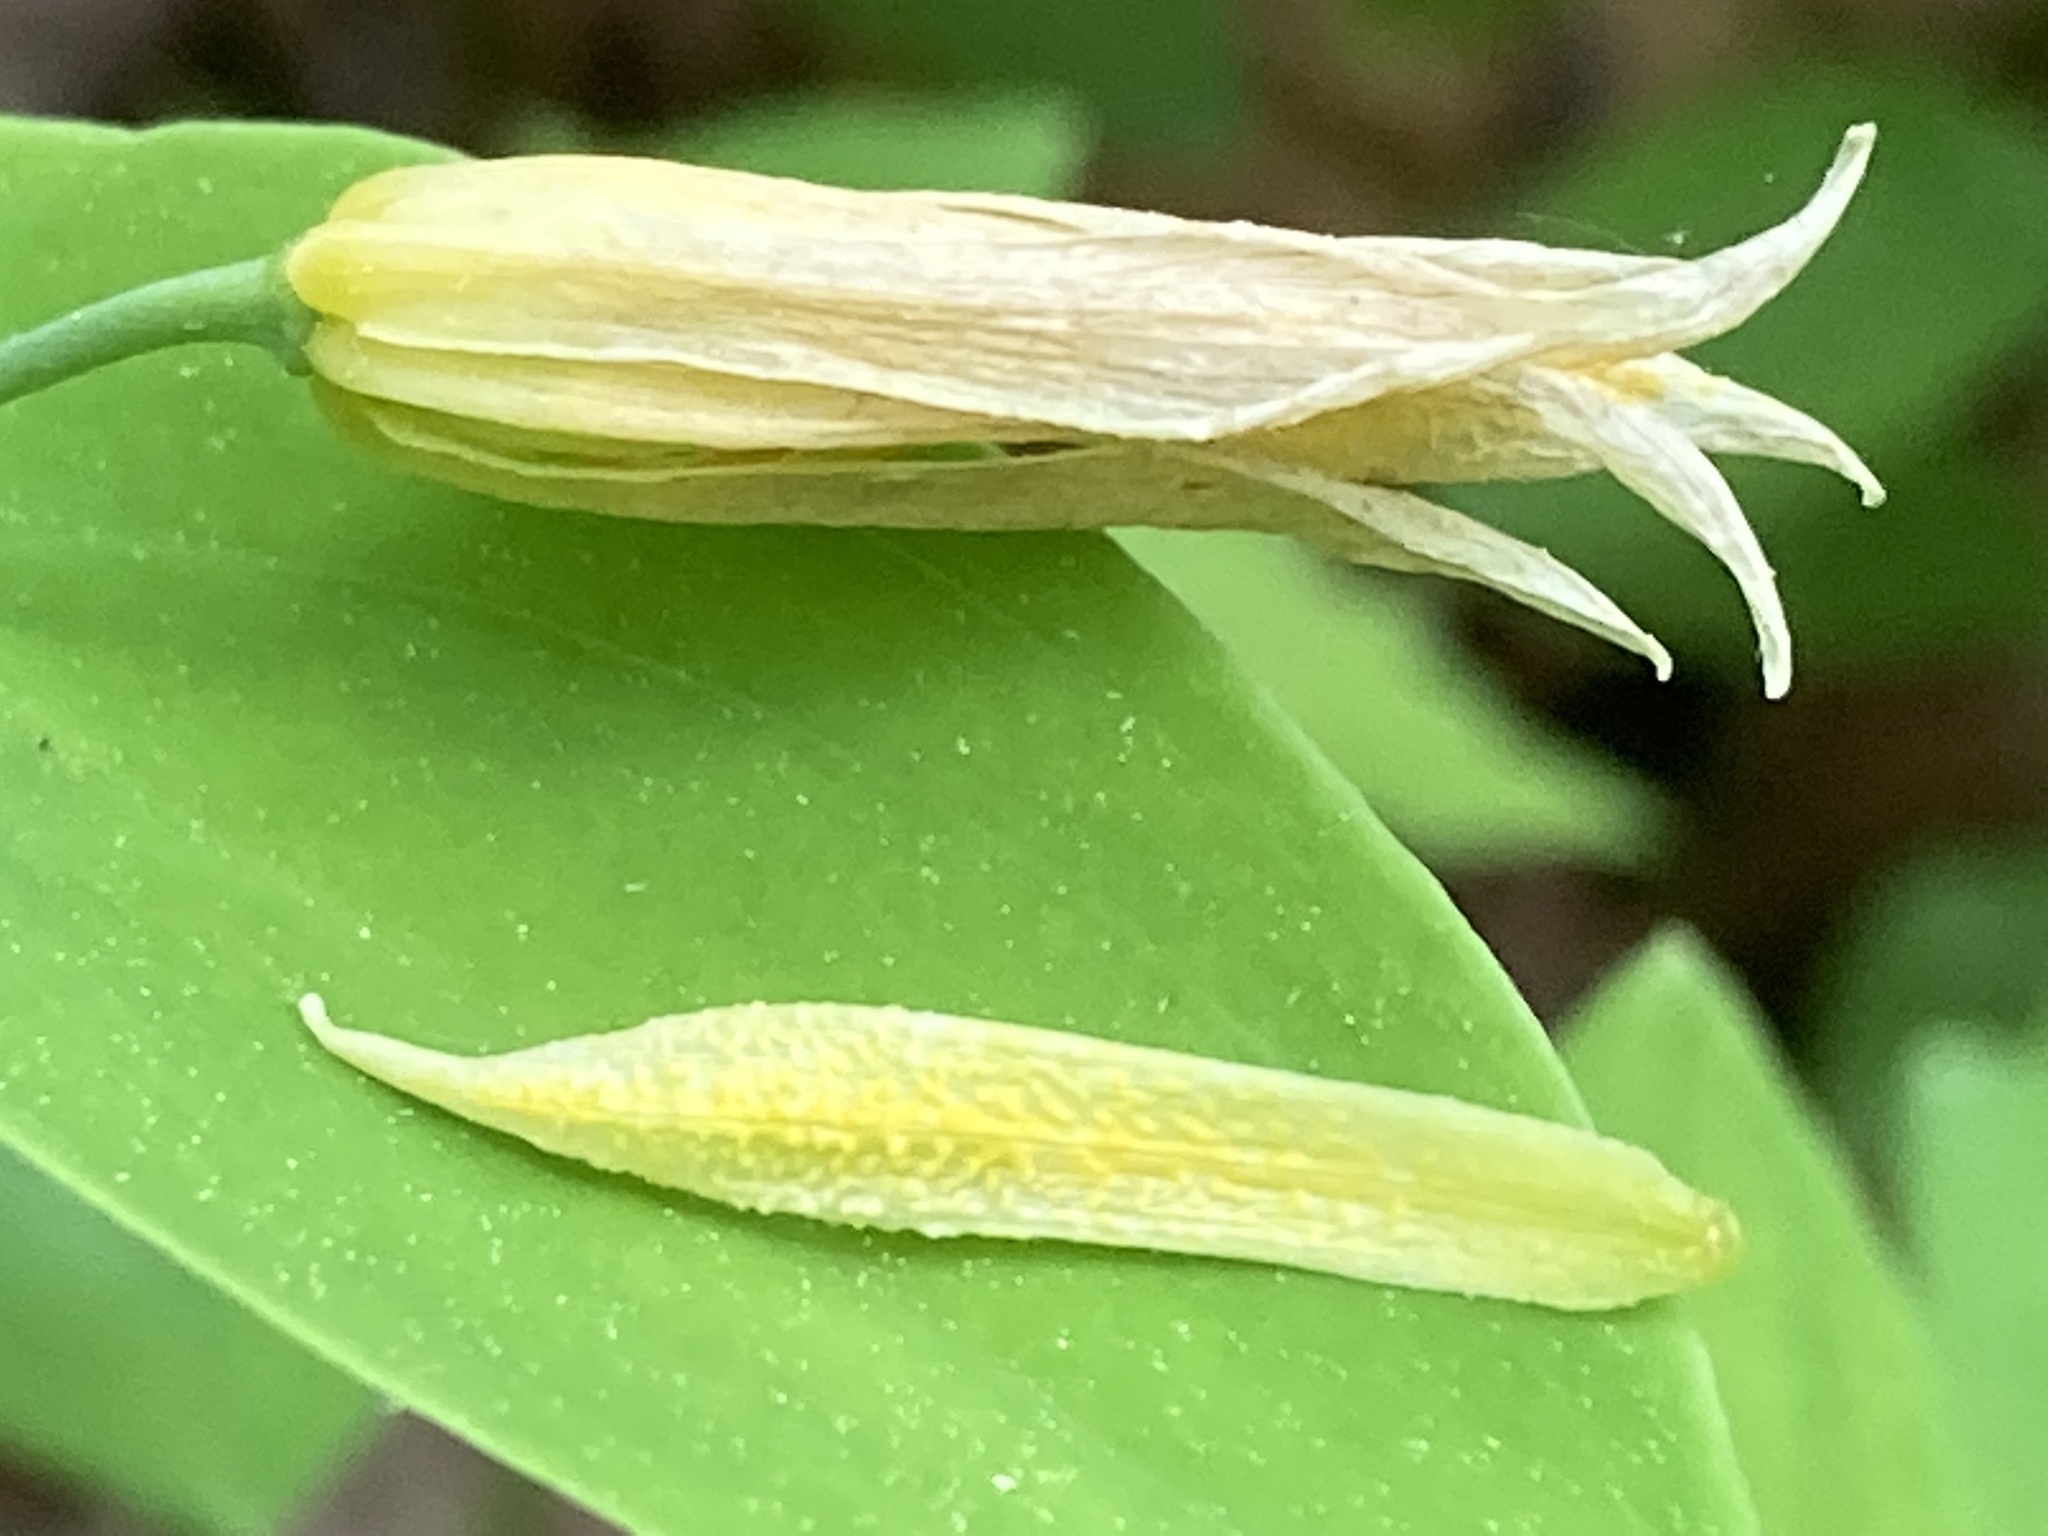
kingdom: Plantae
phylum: Tracheophyta
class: Liliopsida
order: Liliales
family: Colchicaceae
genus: Uvularia
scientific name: Uvularia perfoliata
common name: Perfoliate bellwort
